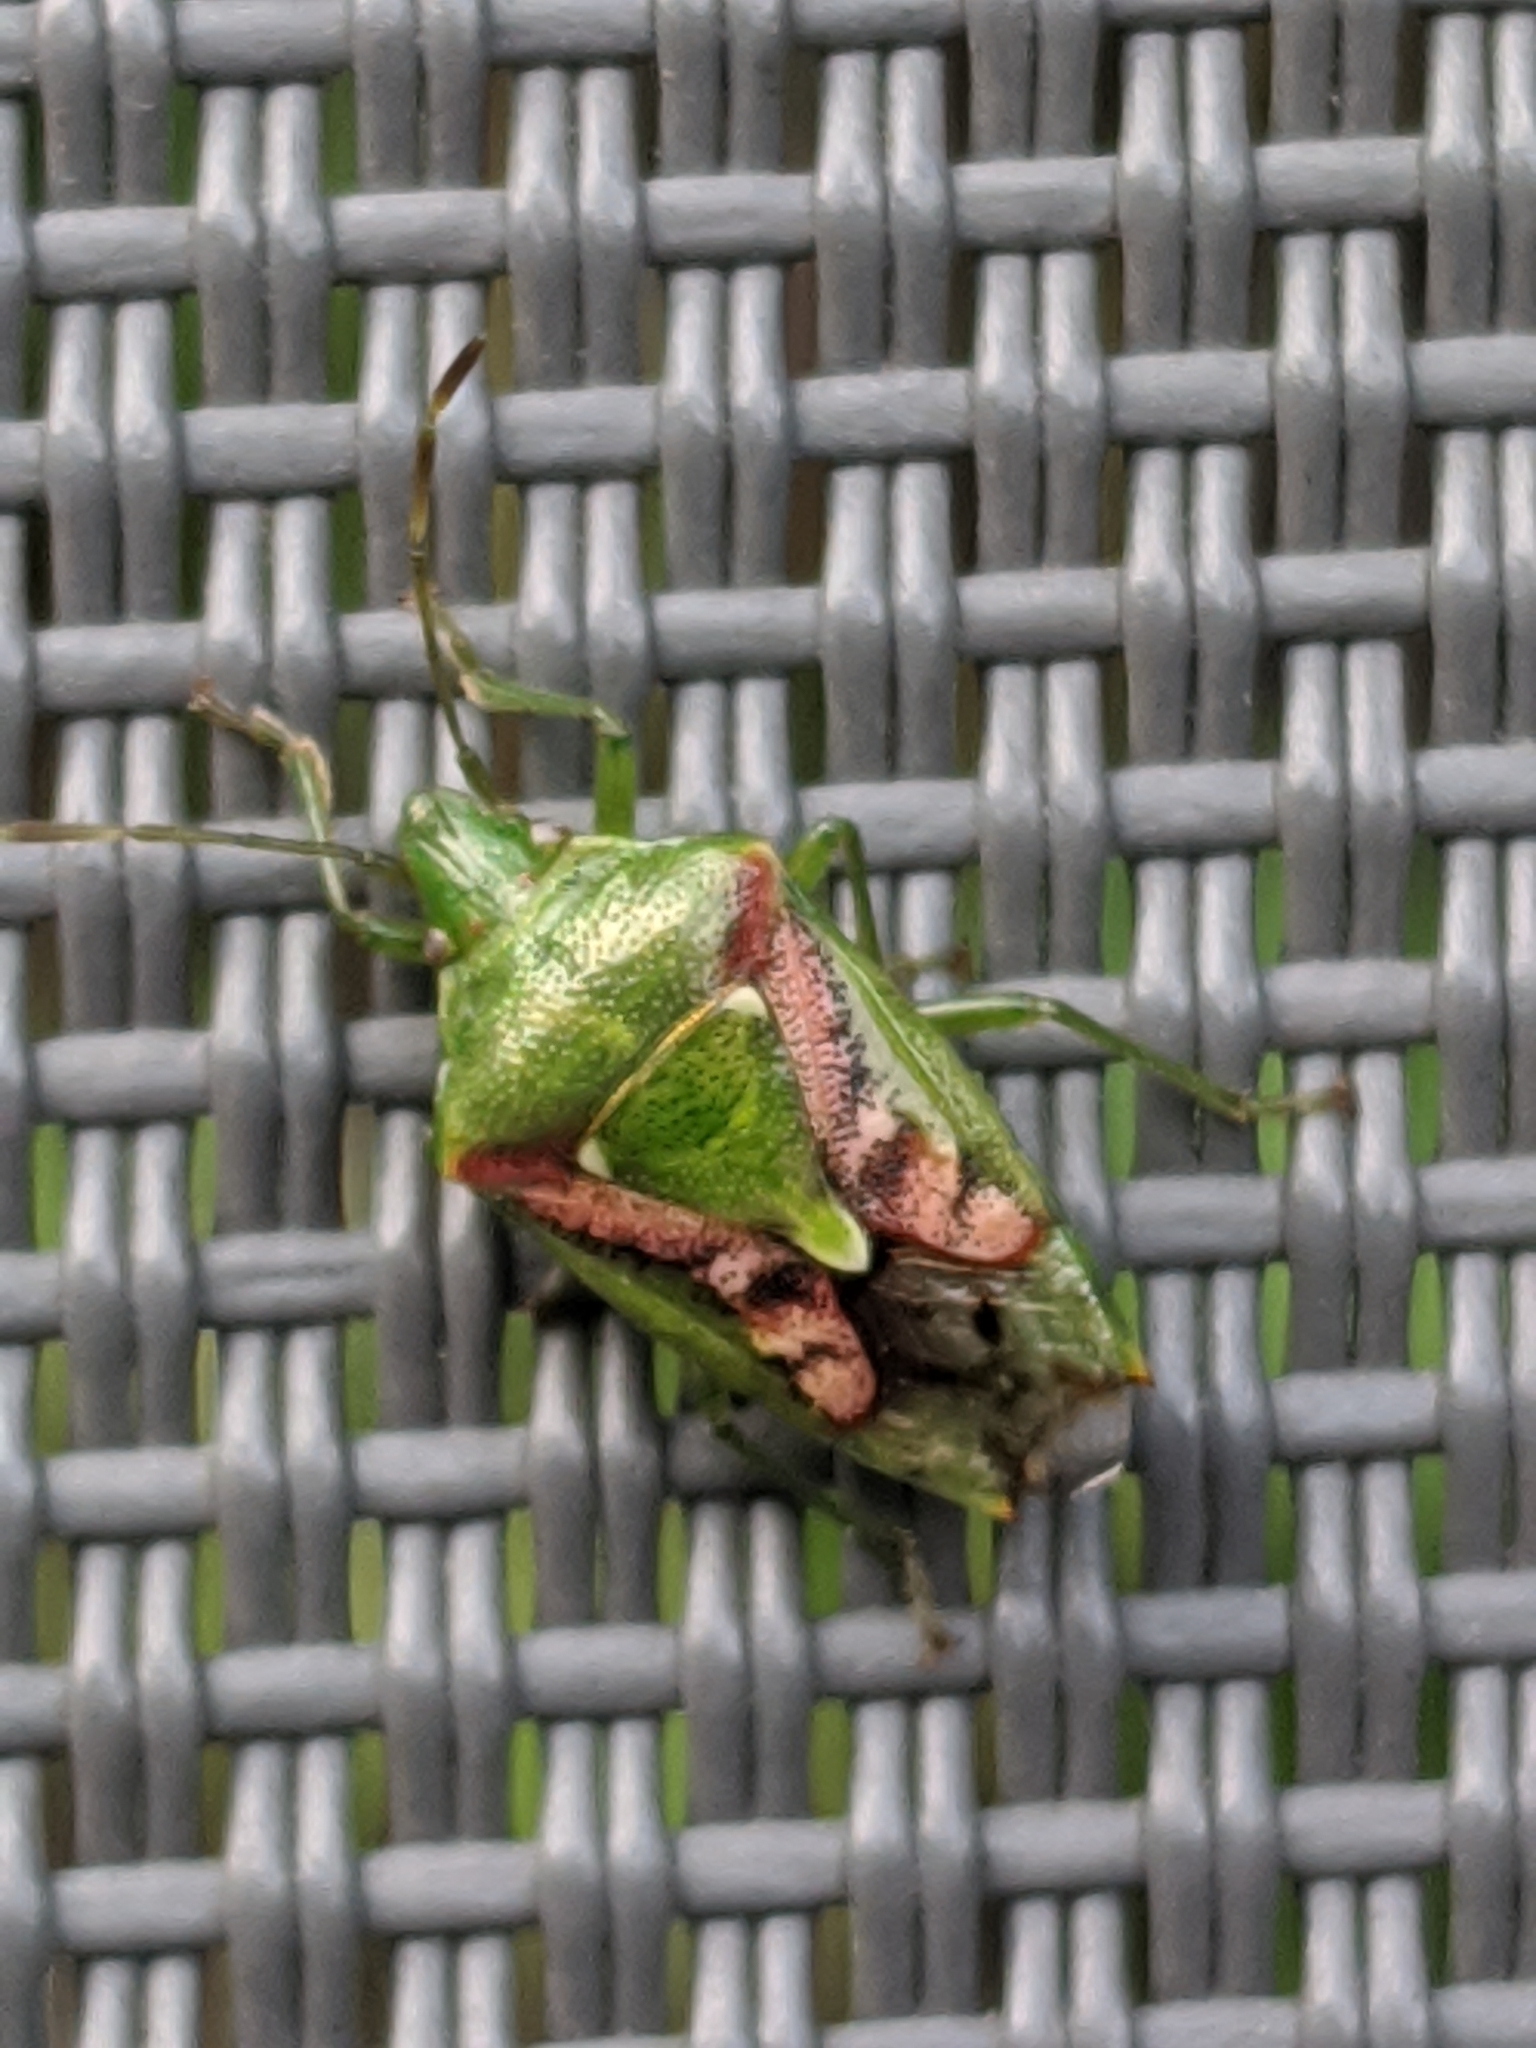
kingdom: Animalia
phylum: Arthropoda
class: Insecta
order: Hemiptera
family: Acanthosomatidae
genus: Cyphostethus
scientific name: Cyphostethus tristriatus
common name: Juniper shieldbug
